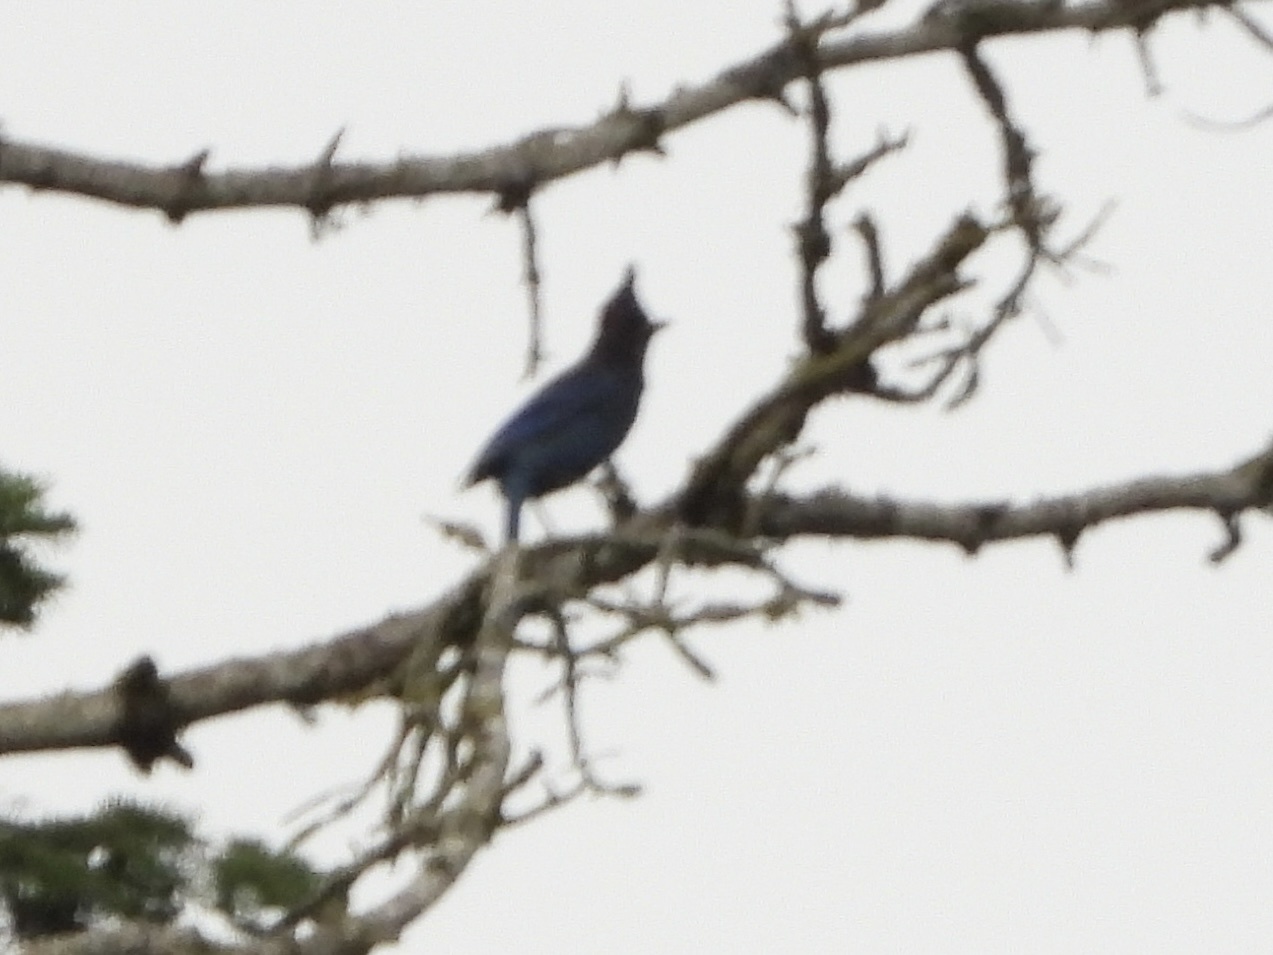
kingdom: Animalia
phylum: Chordata
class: Aves
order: Passeriformes
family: Corvidae
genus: Cyanocitta
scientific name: Cyanocitta stelleri
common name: Steller's jay
